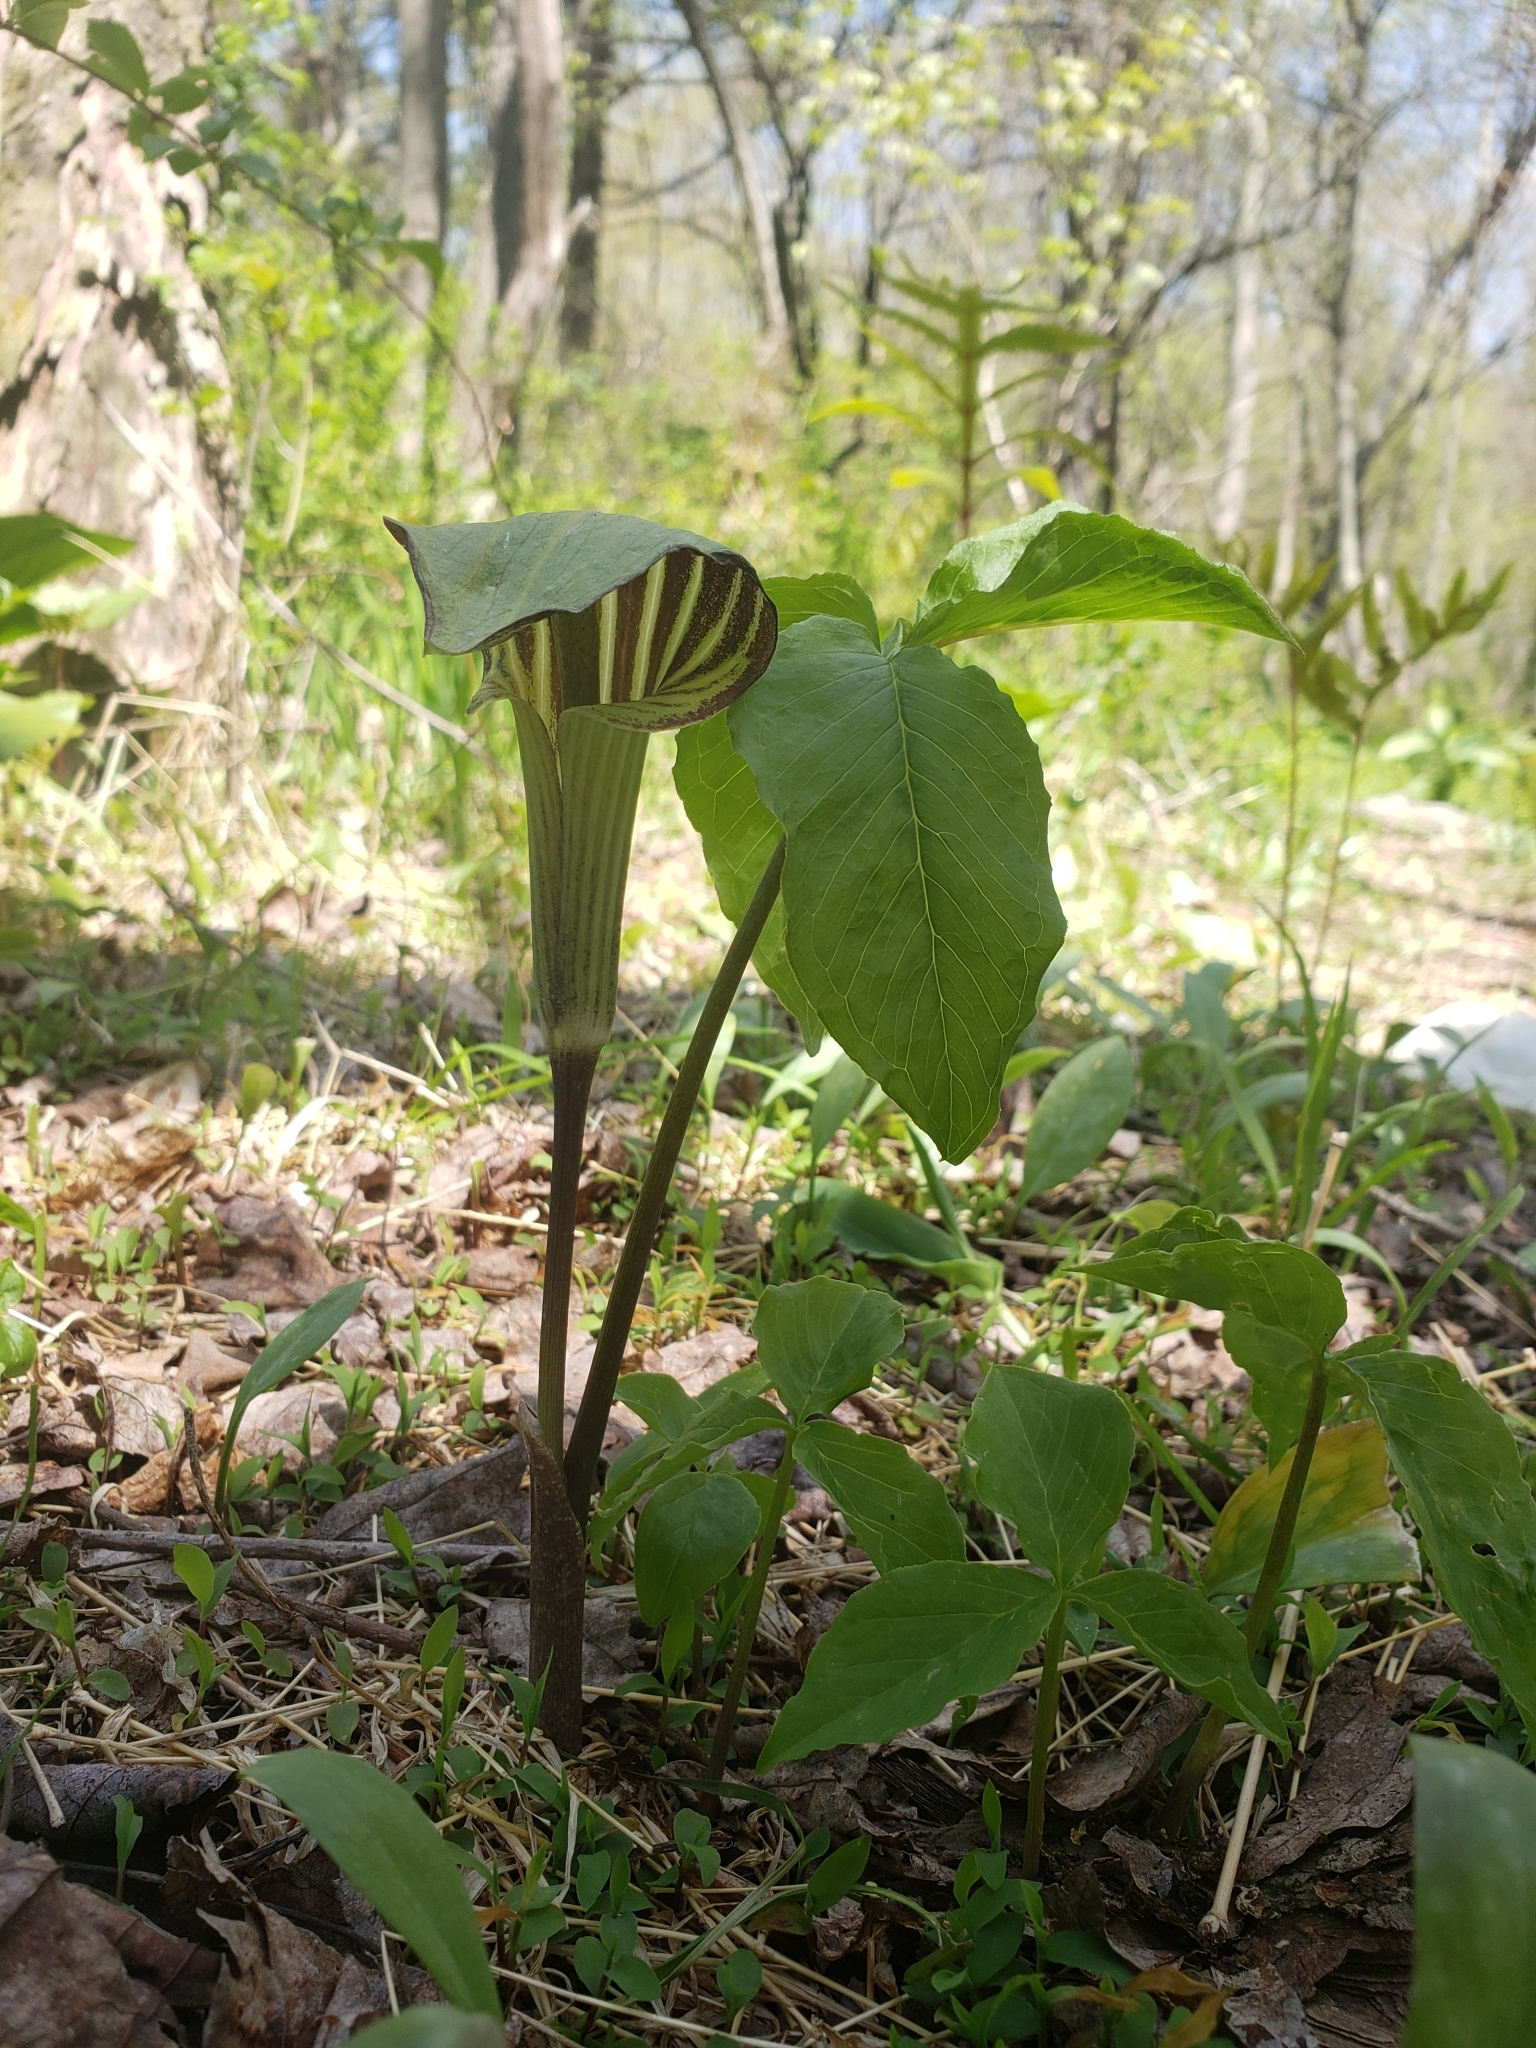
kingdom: Plantae
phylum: Tracheophyta
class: Liliopsida
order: Alismatales
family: Araceae
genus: Arisaema
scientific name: Arisaema triphyllum
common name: Jack-in-the-pulpit
